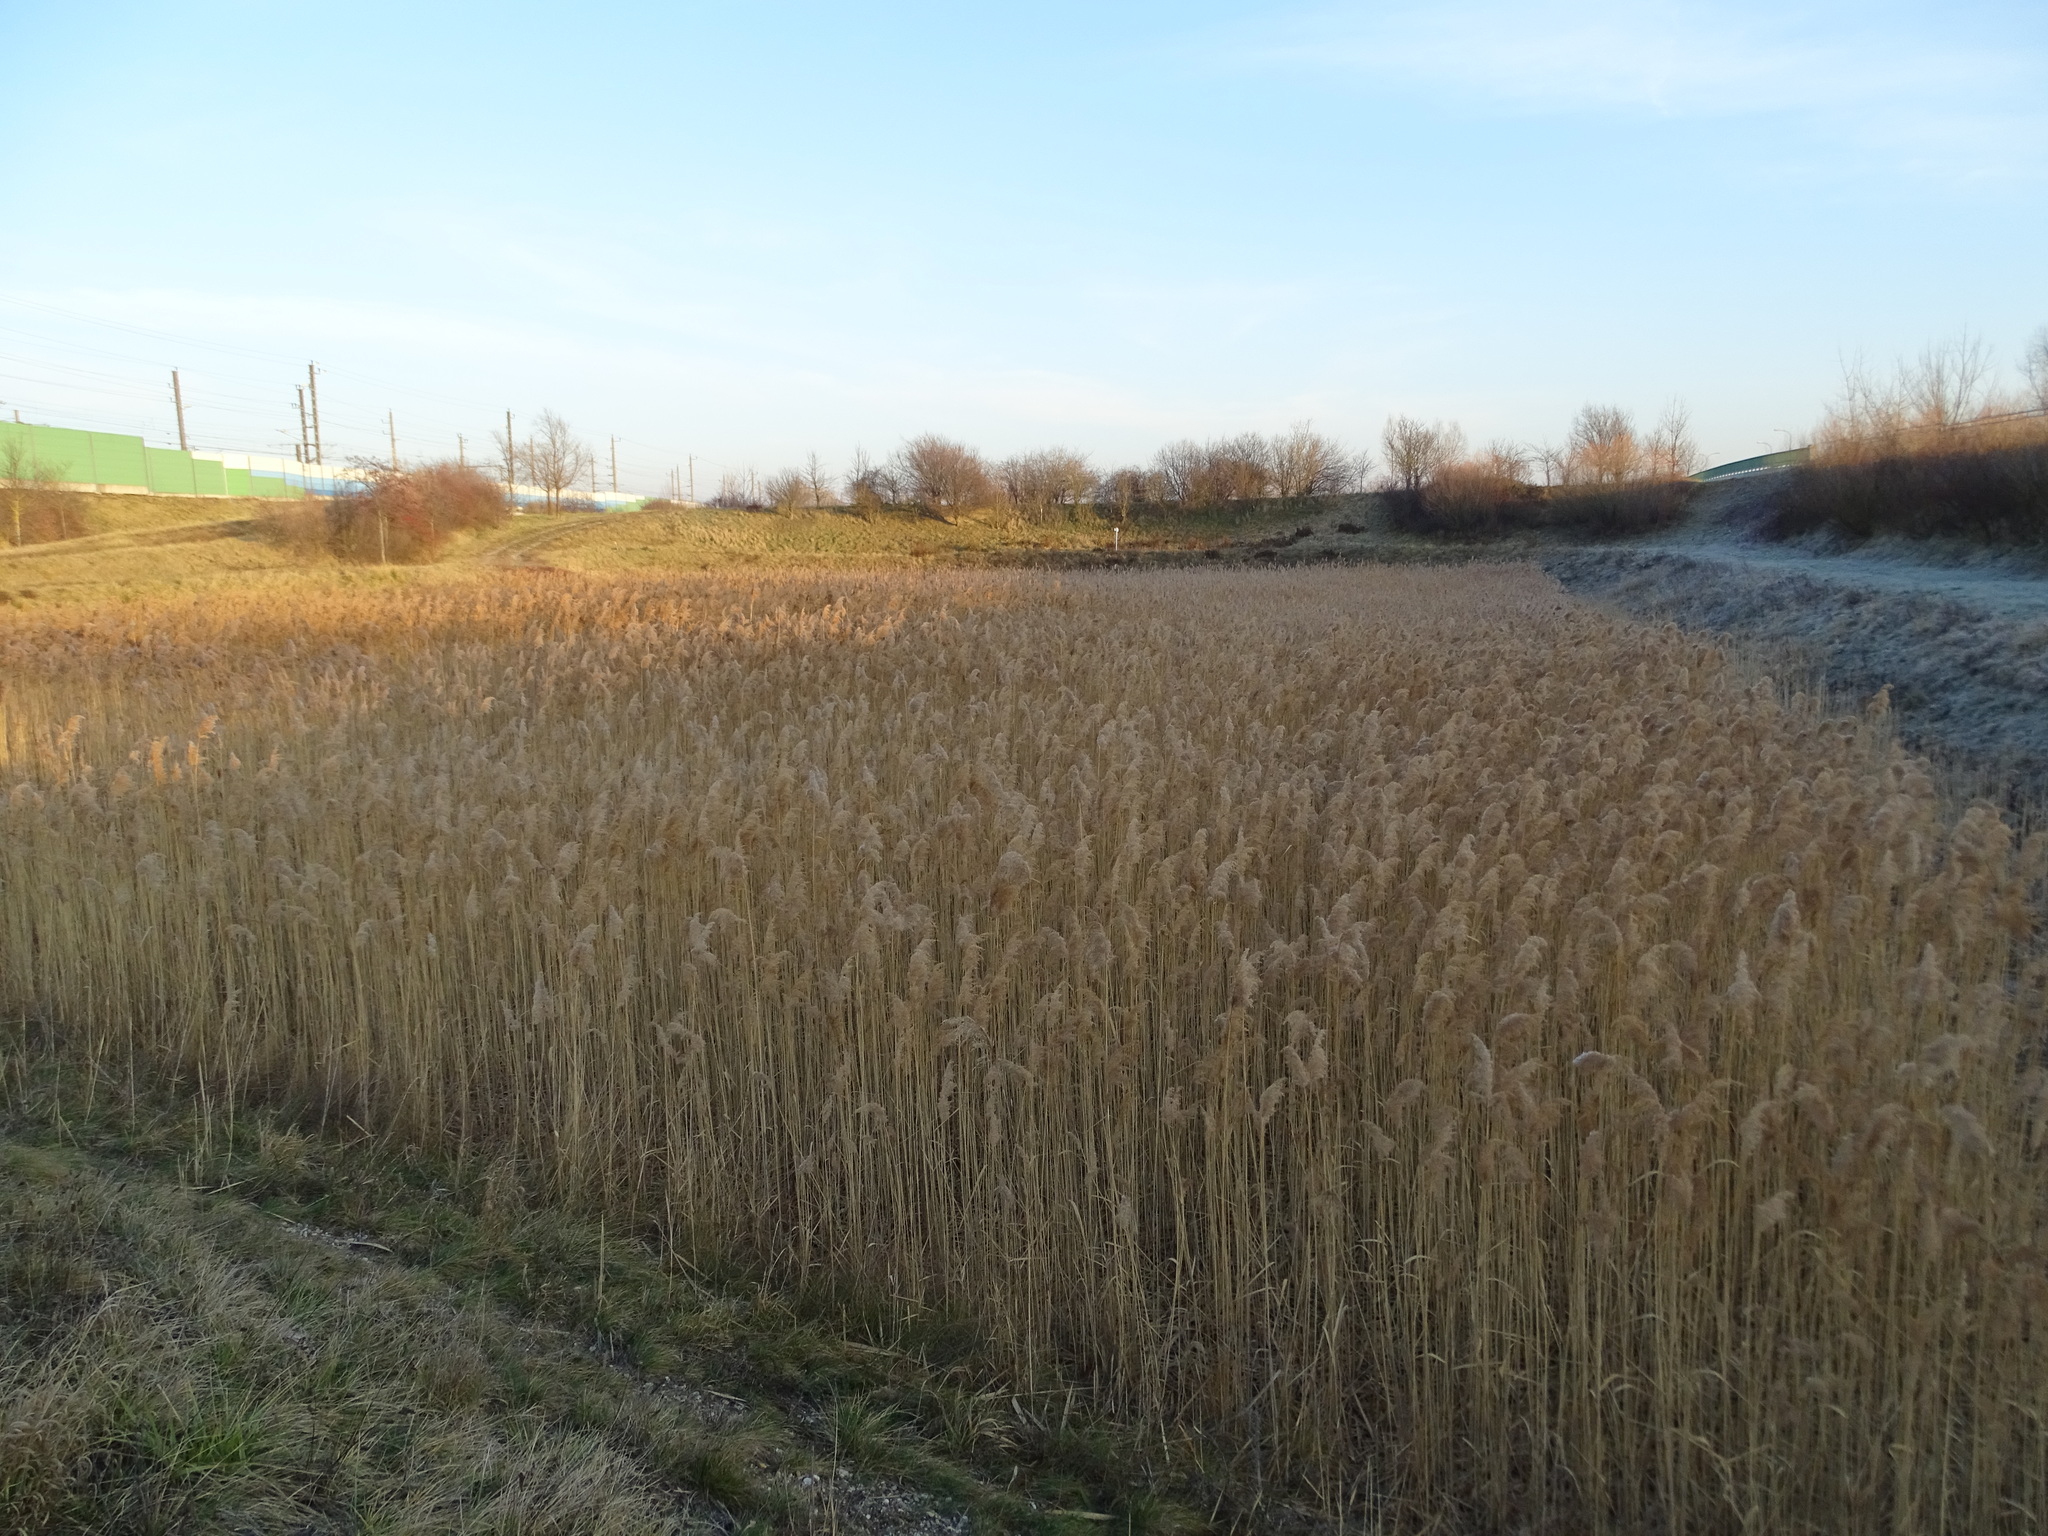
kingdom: Plantae
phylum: Tracheophyta
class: Liliopsida
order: Poales
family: Poaceae
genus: Phragmites
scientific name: Phragmites australis
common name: Common reed
